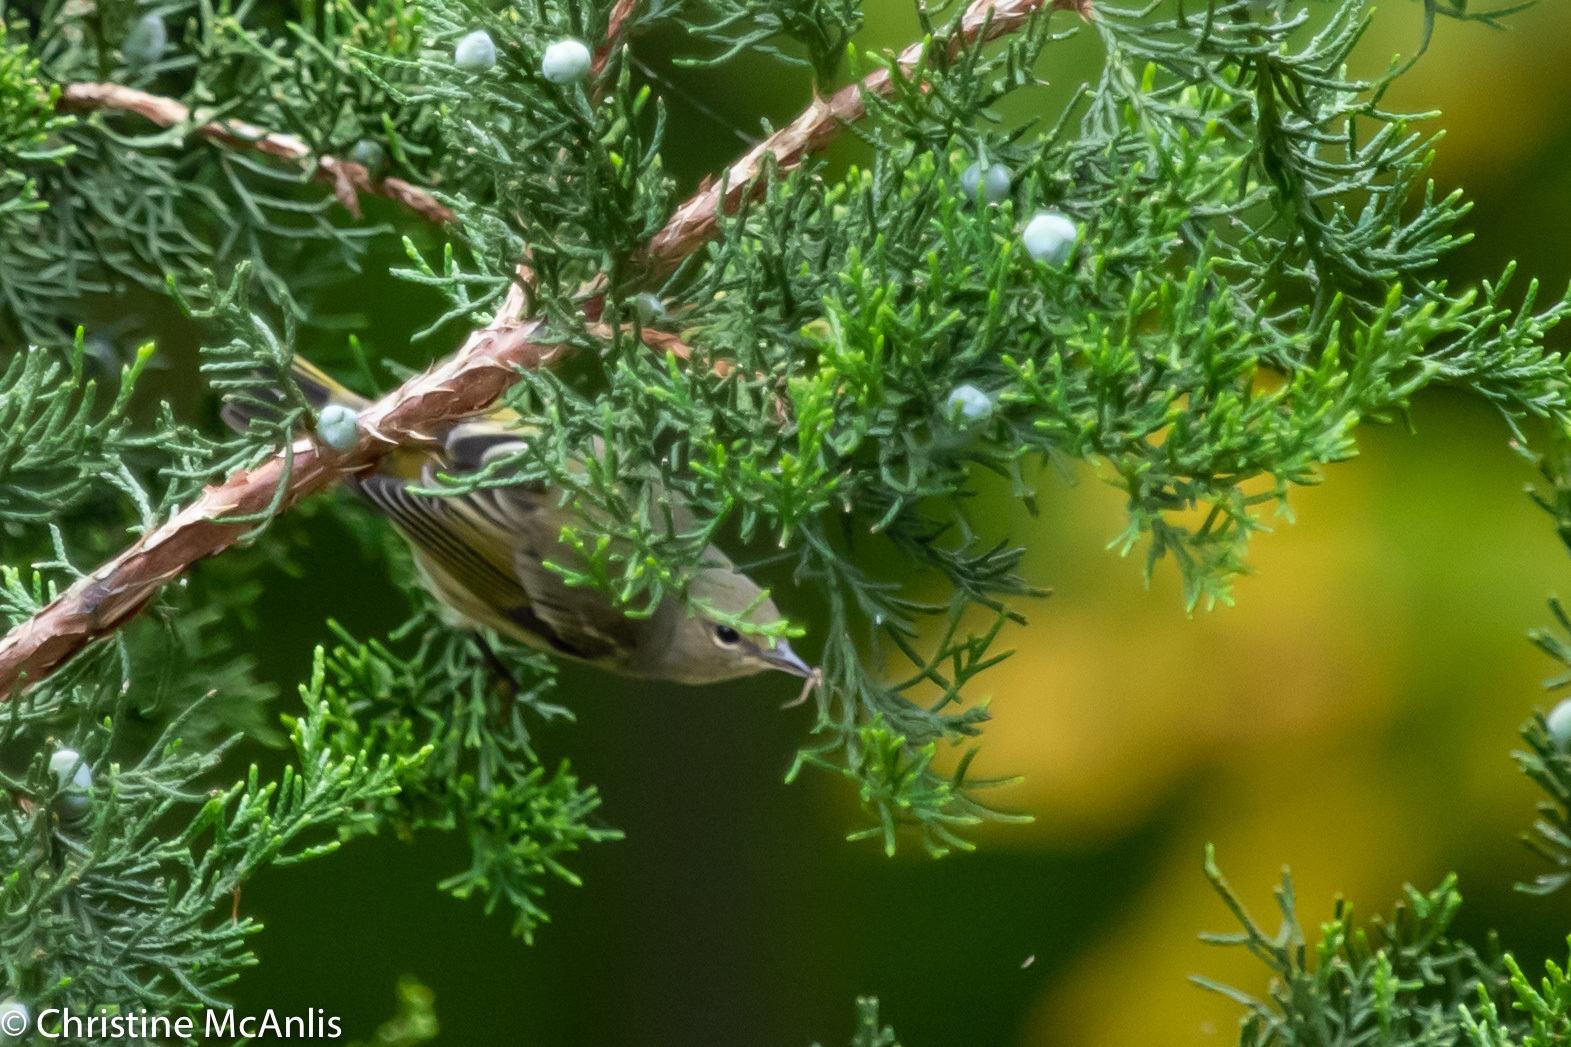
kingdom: Animalia
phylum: Chordata
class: Aves
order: Passeriformes
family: Parulidae
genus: Setophaga
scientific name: Setophaga tigrina
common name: Cape may warbler
